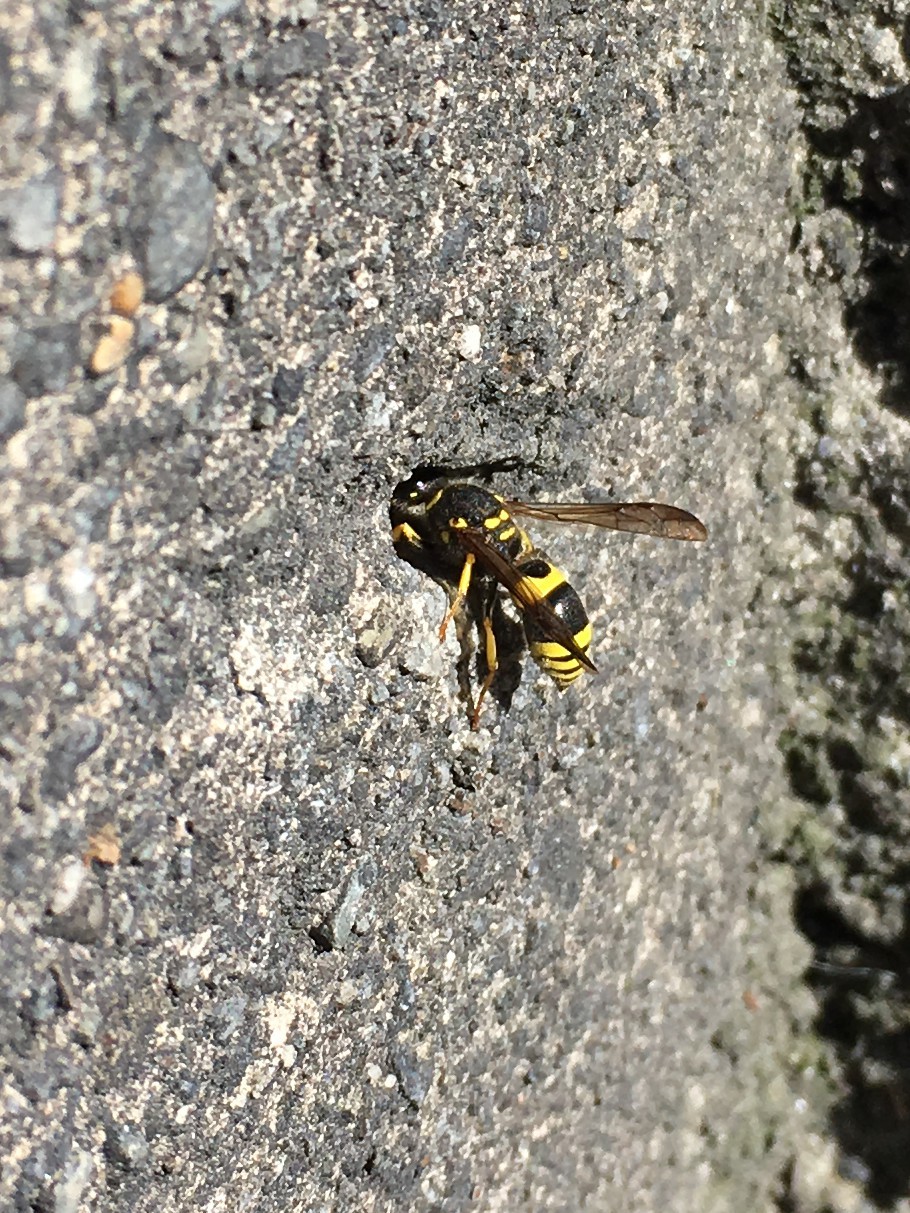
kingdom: Animalia
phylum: Arthropoda
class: Insecta
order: Hymenoptera
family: Vespidae
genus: Ancistrocerus
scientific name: Ancistrocerus gazella
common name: European tube wasp
